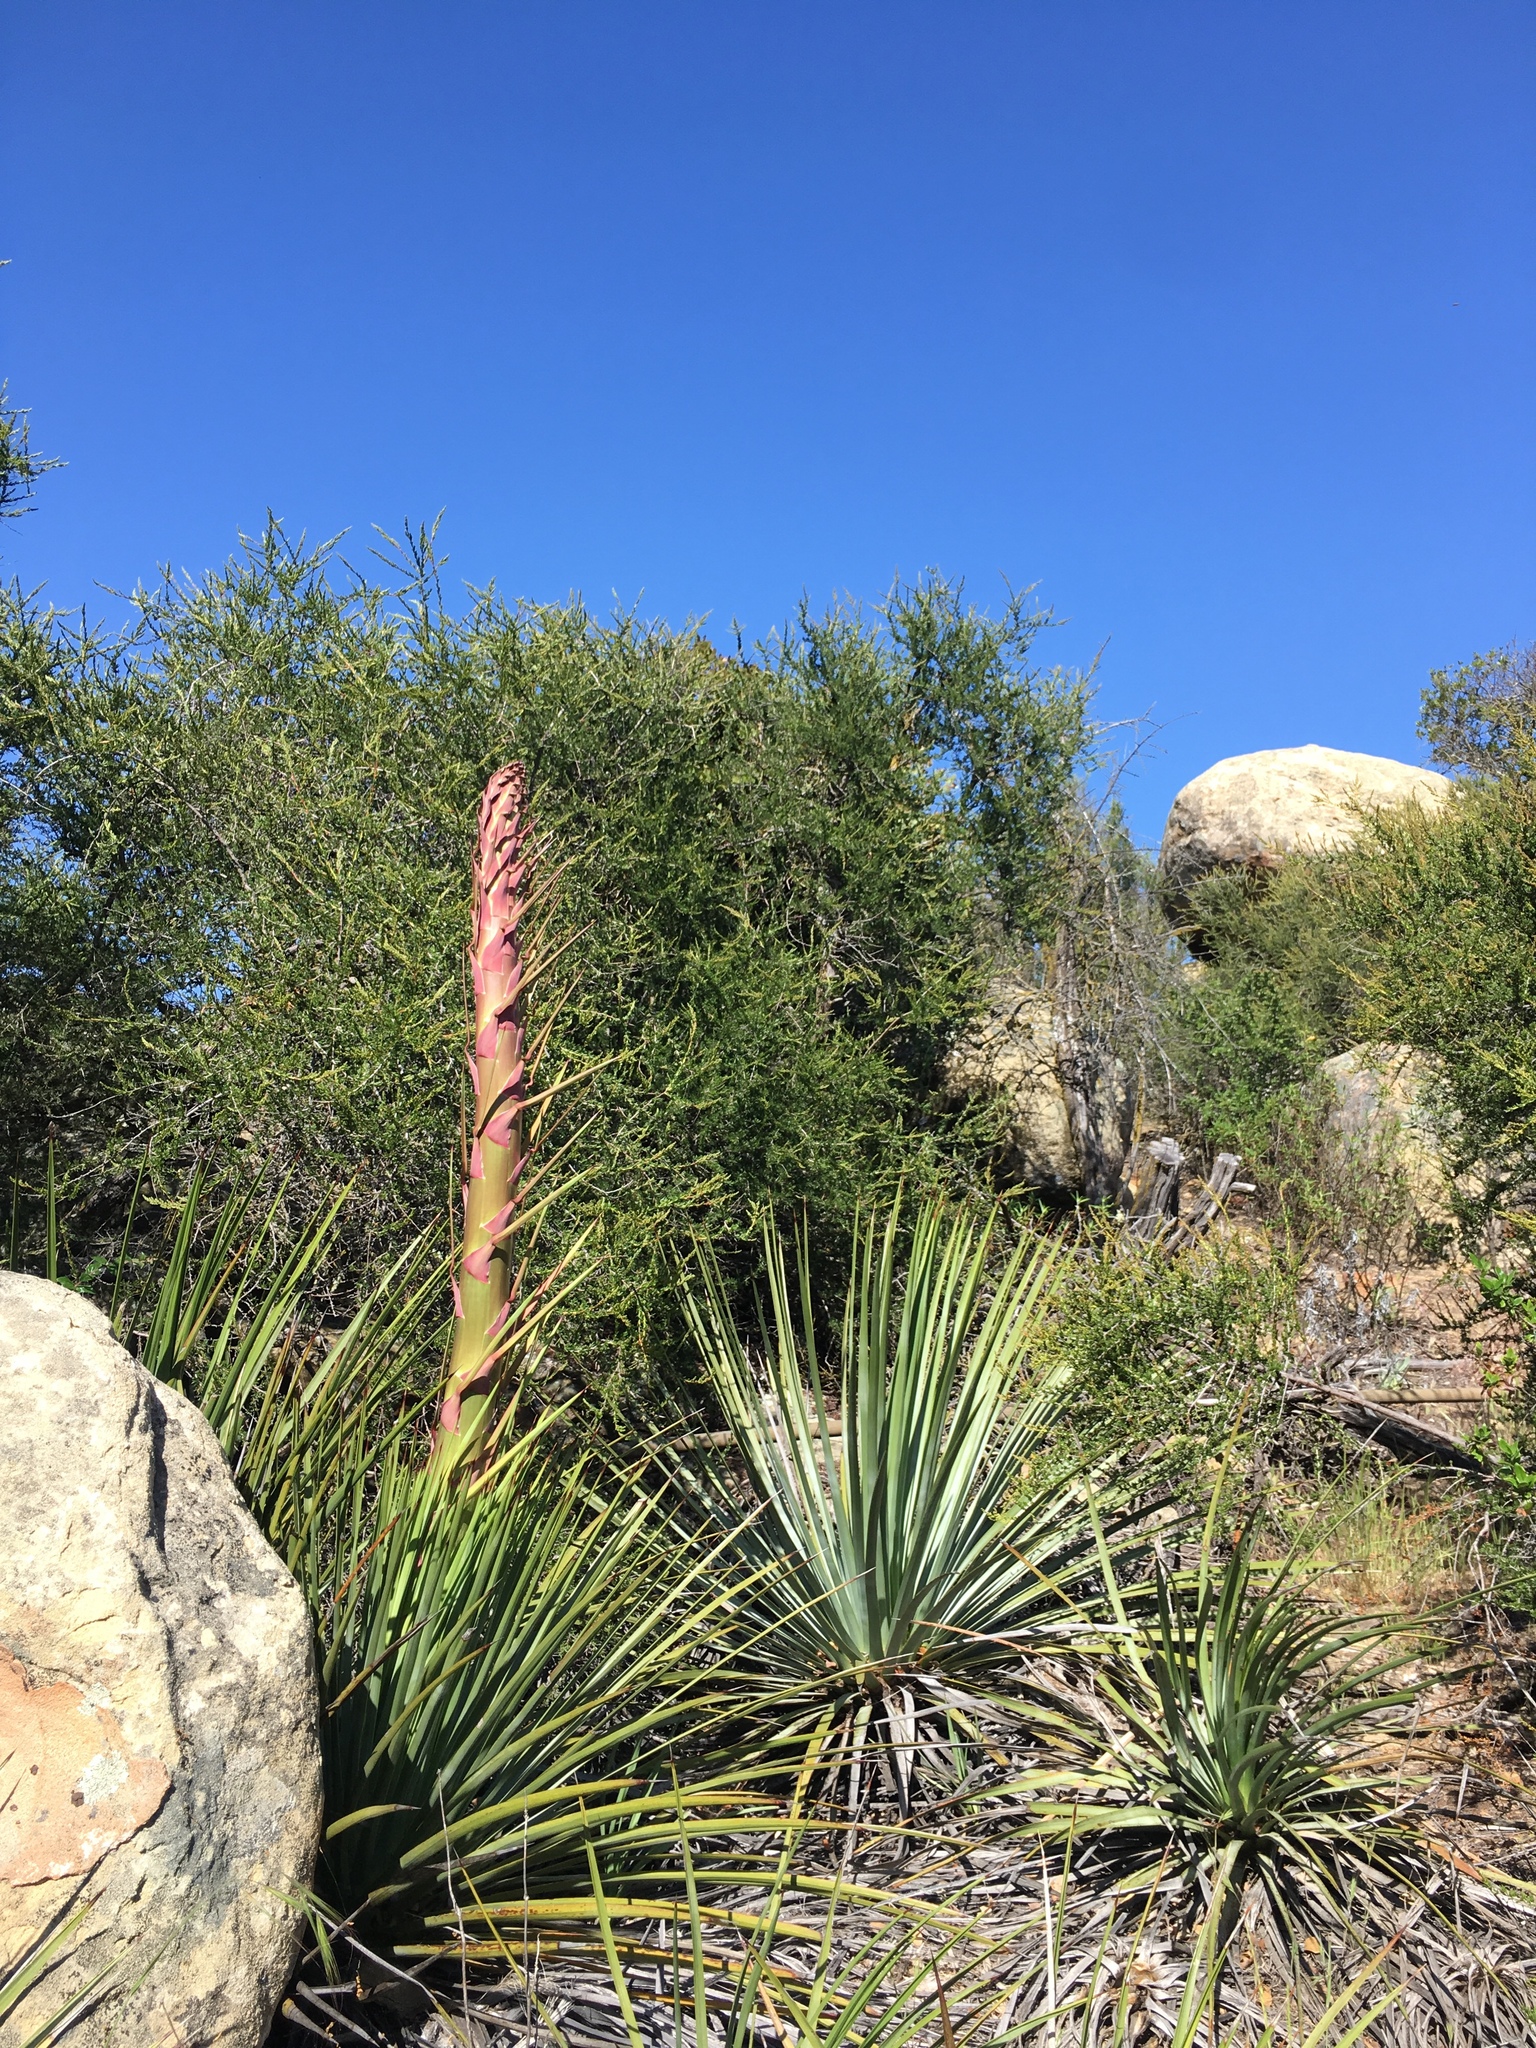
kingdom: Plantae
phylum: Tracheophyta
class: Liliopsida
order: Asparagales
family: Asparagaceae
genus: Hesperoyucca
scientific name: Hesperoyucca whipplei
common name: Our lord's-candle
